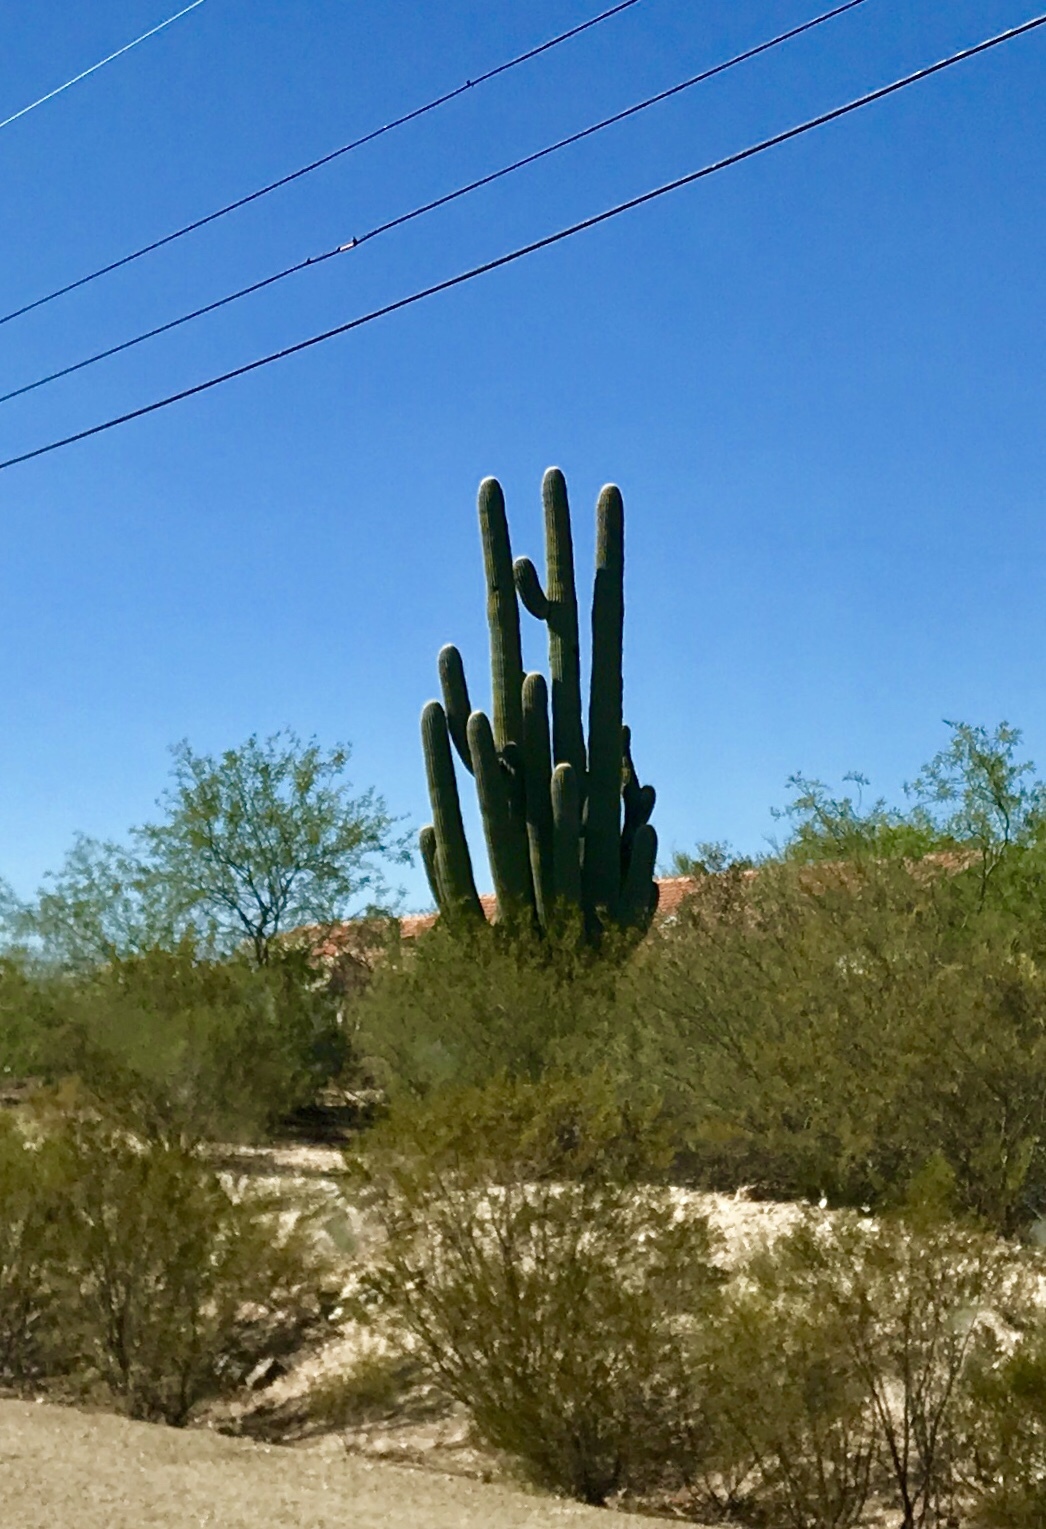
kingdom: Plantae
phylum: Tracheophyta
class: Magnoliopsida
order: Caryophyllales
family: Cactaceae
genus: Carnegiea
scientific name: Carnegiea gigantea
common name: Saguaro
